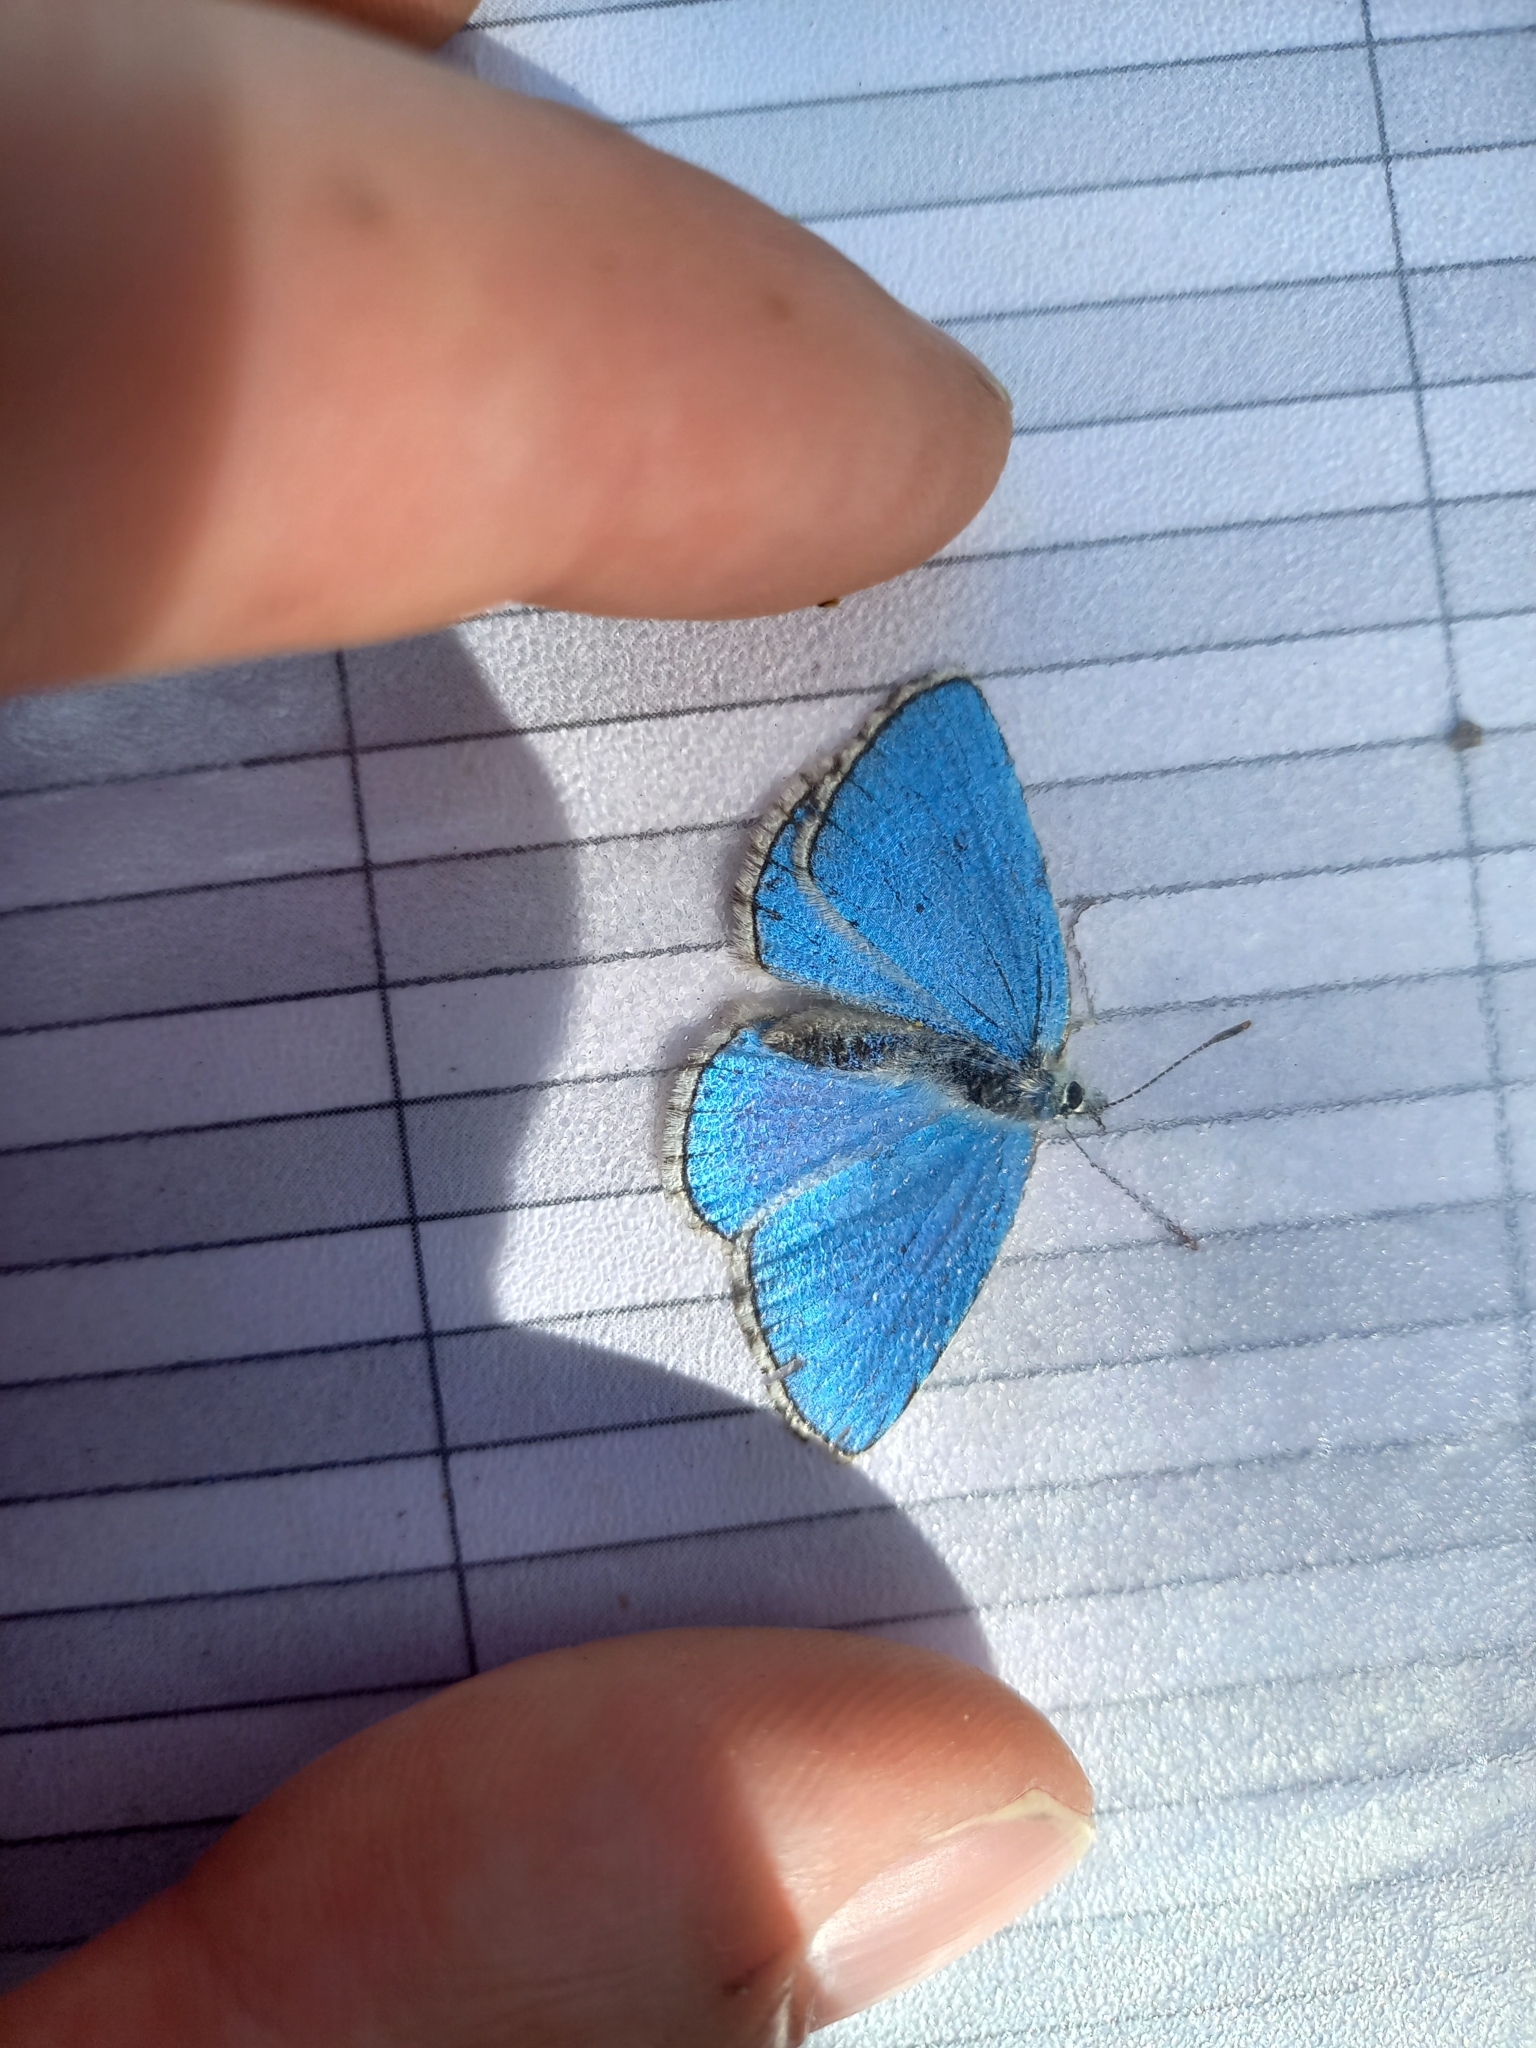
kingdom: Animalia
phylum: Arthropoda
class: Insecta
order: Lepidoptera
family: Lycaenidae
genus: Lysandra
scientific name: Lysandra bellargus
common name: Adonis blue
